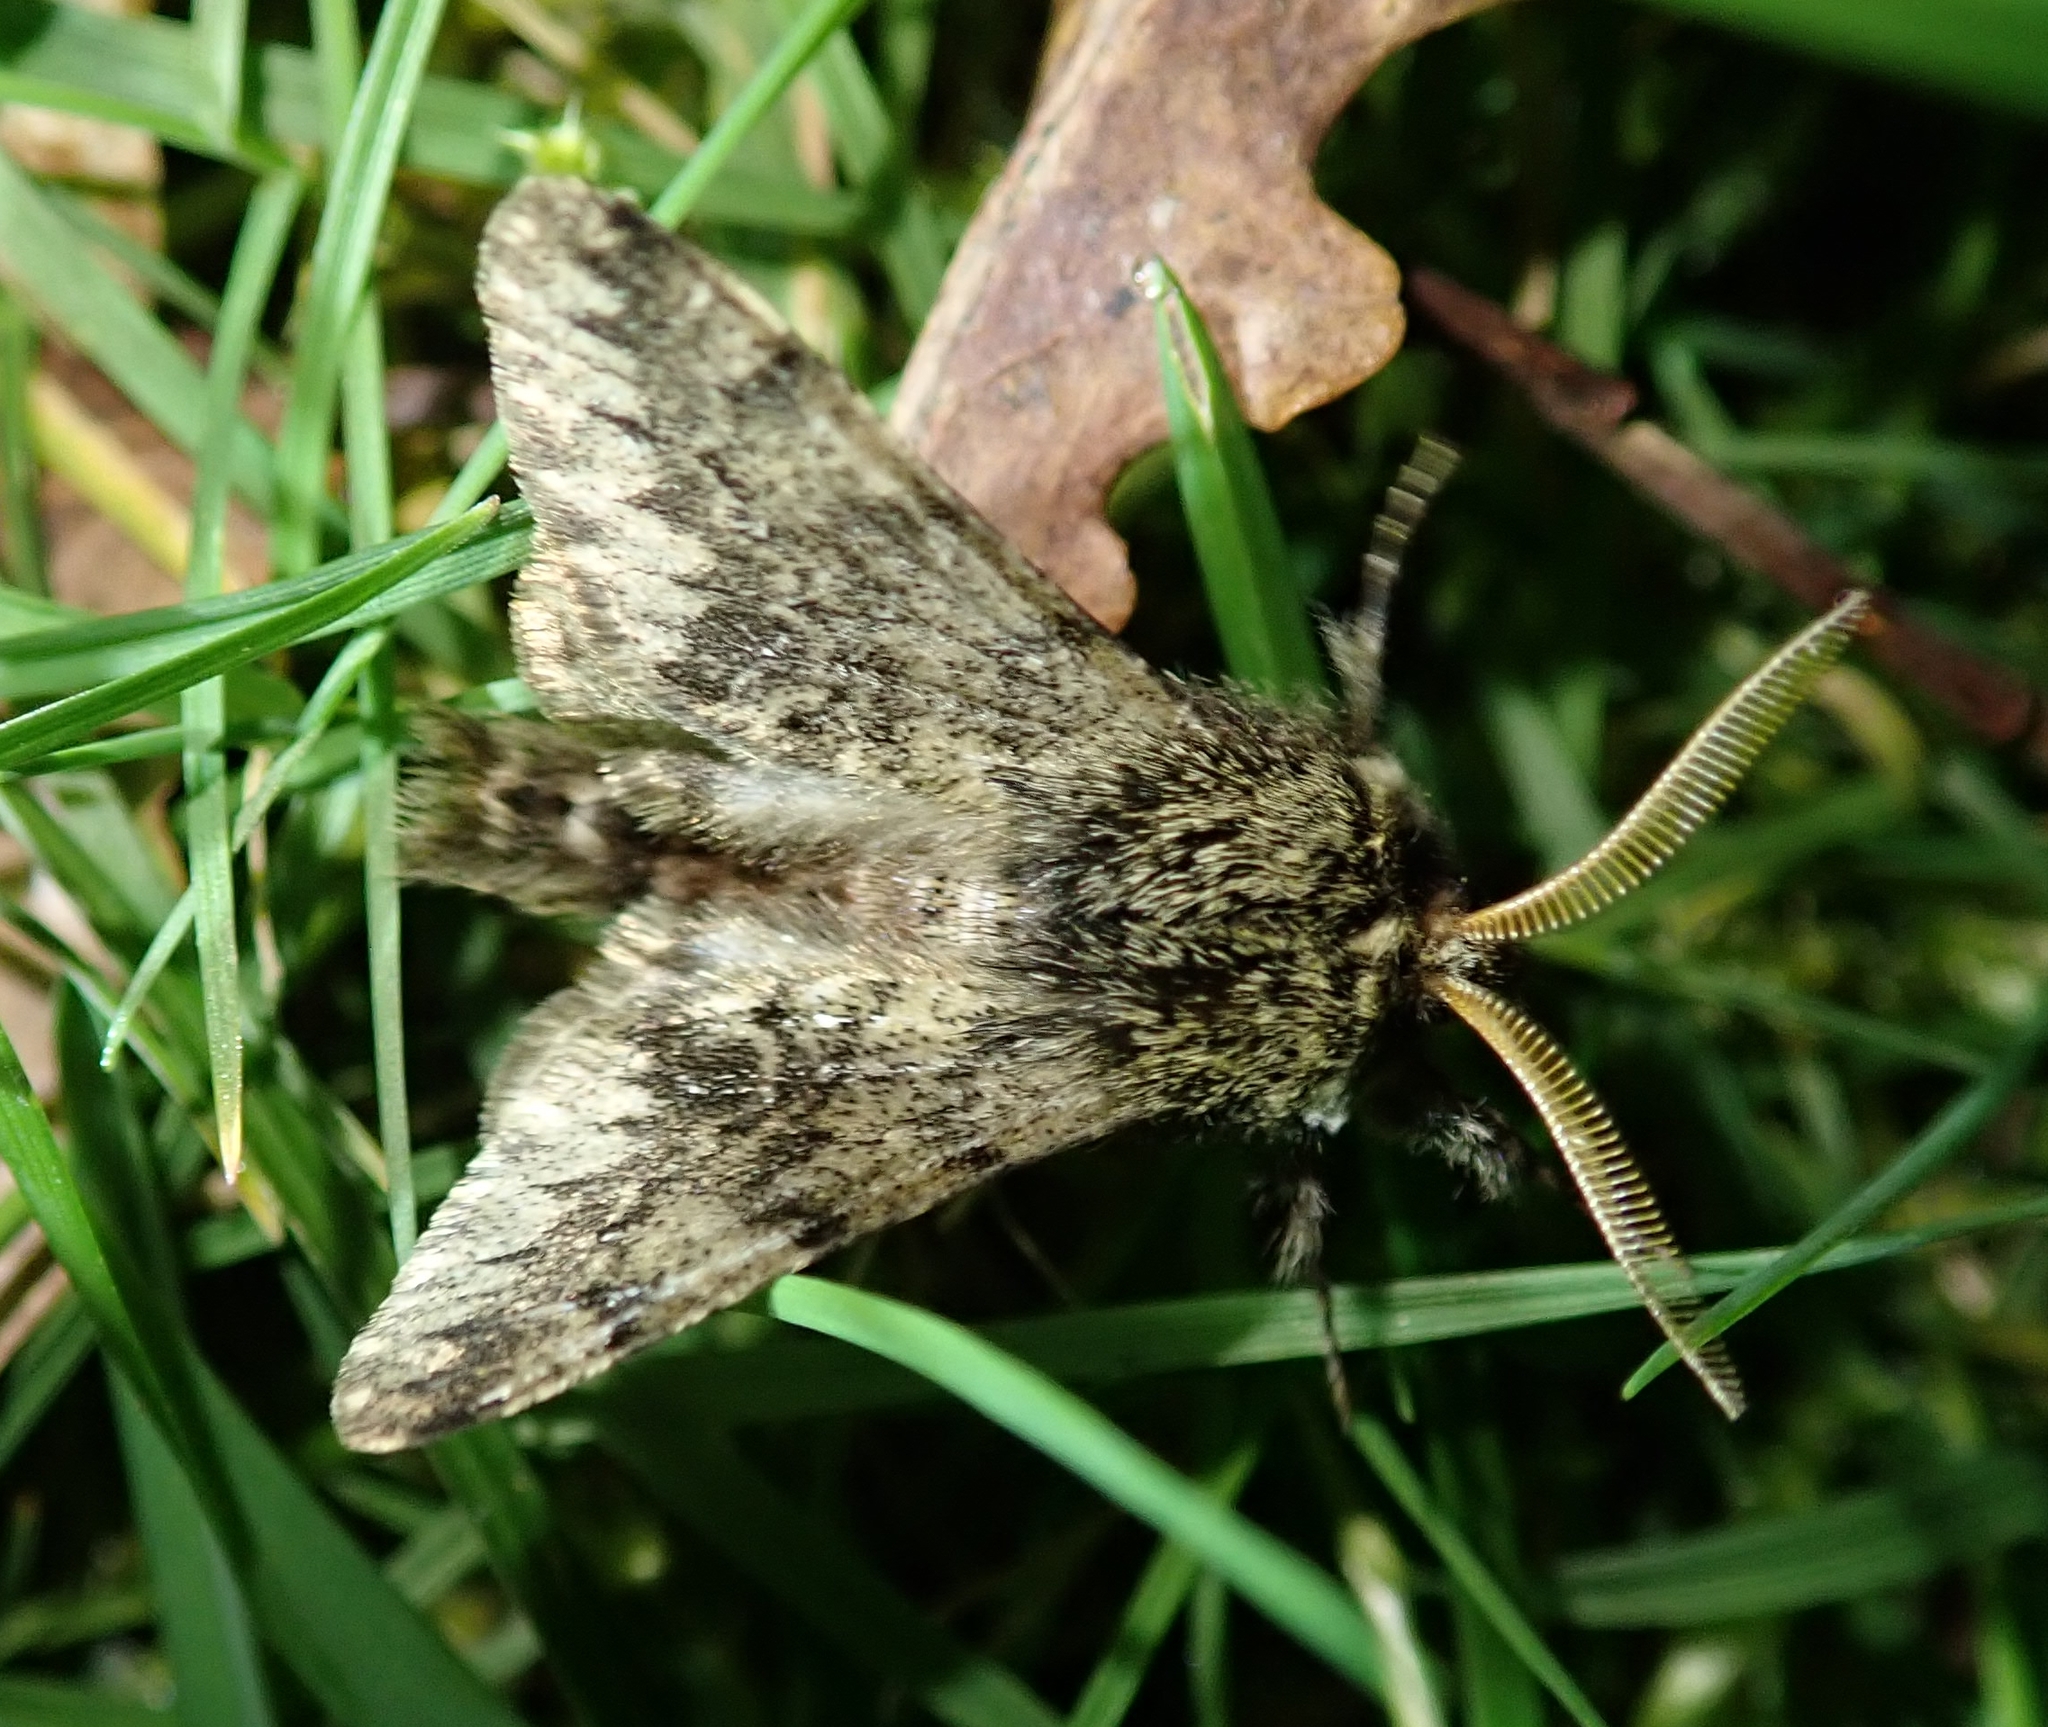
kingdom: Animalia
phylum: Arthropoda
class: Insecta
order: Lepidoptera
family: Geometridae
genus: Apocheima
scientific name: Apocheima hispidaria
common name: Small brindled beauty
